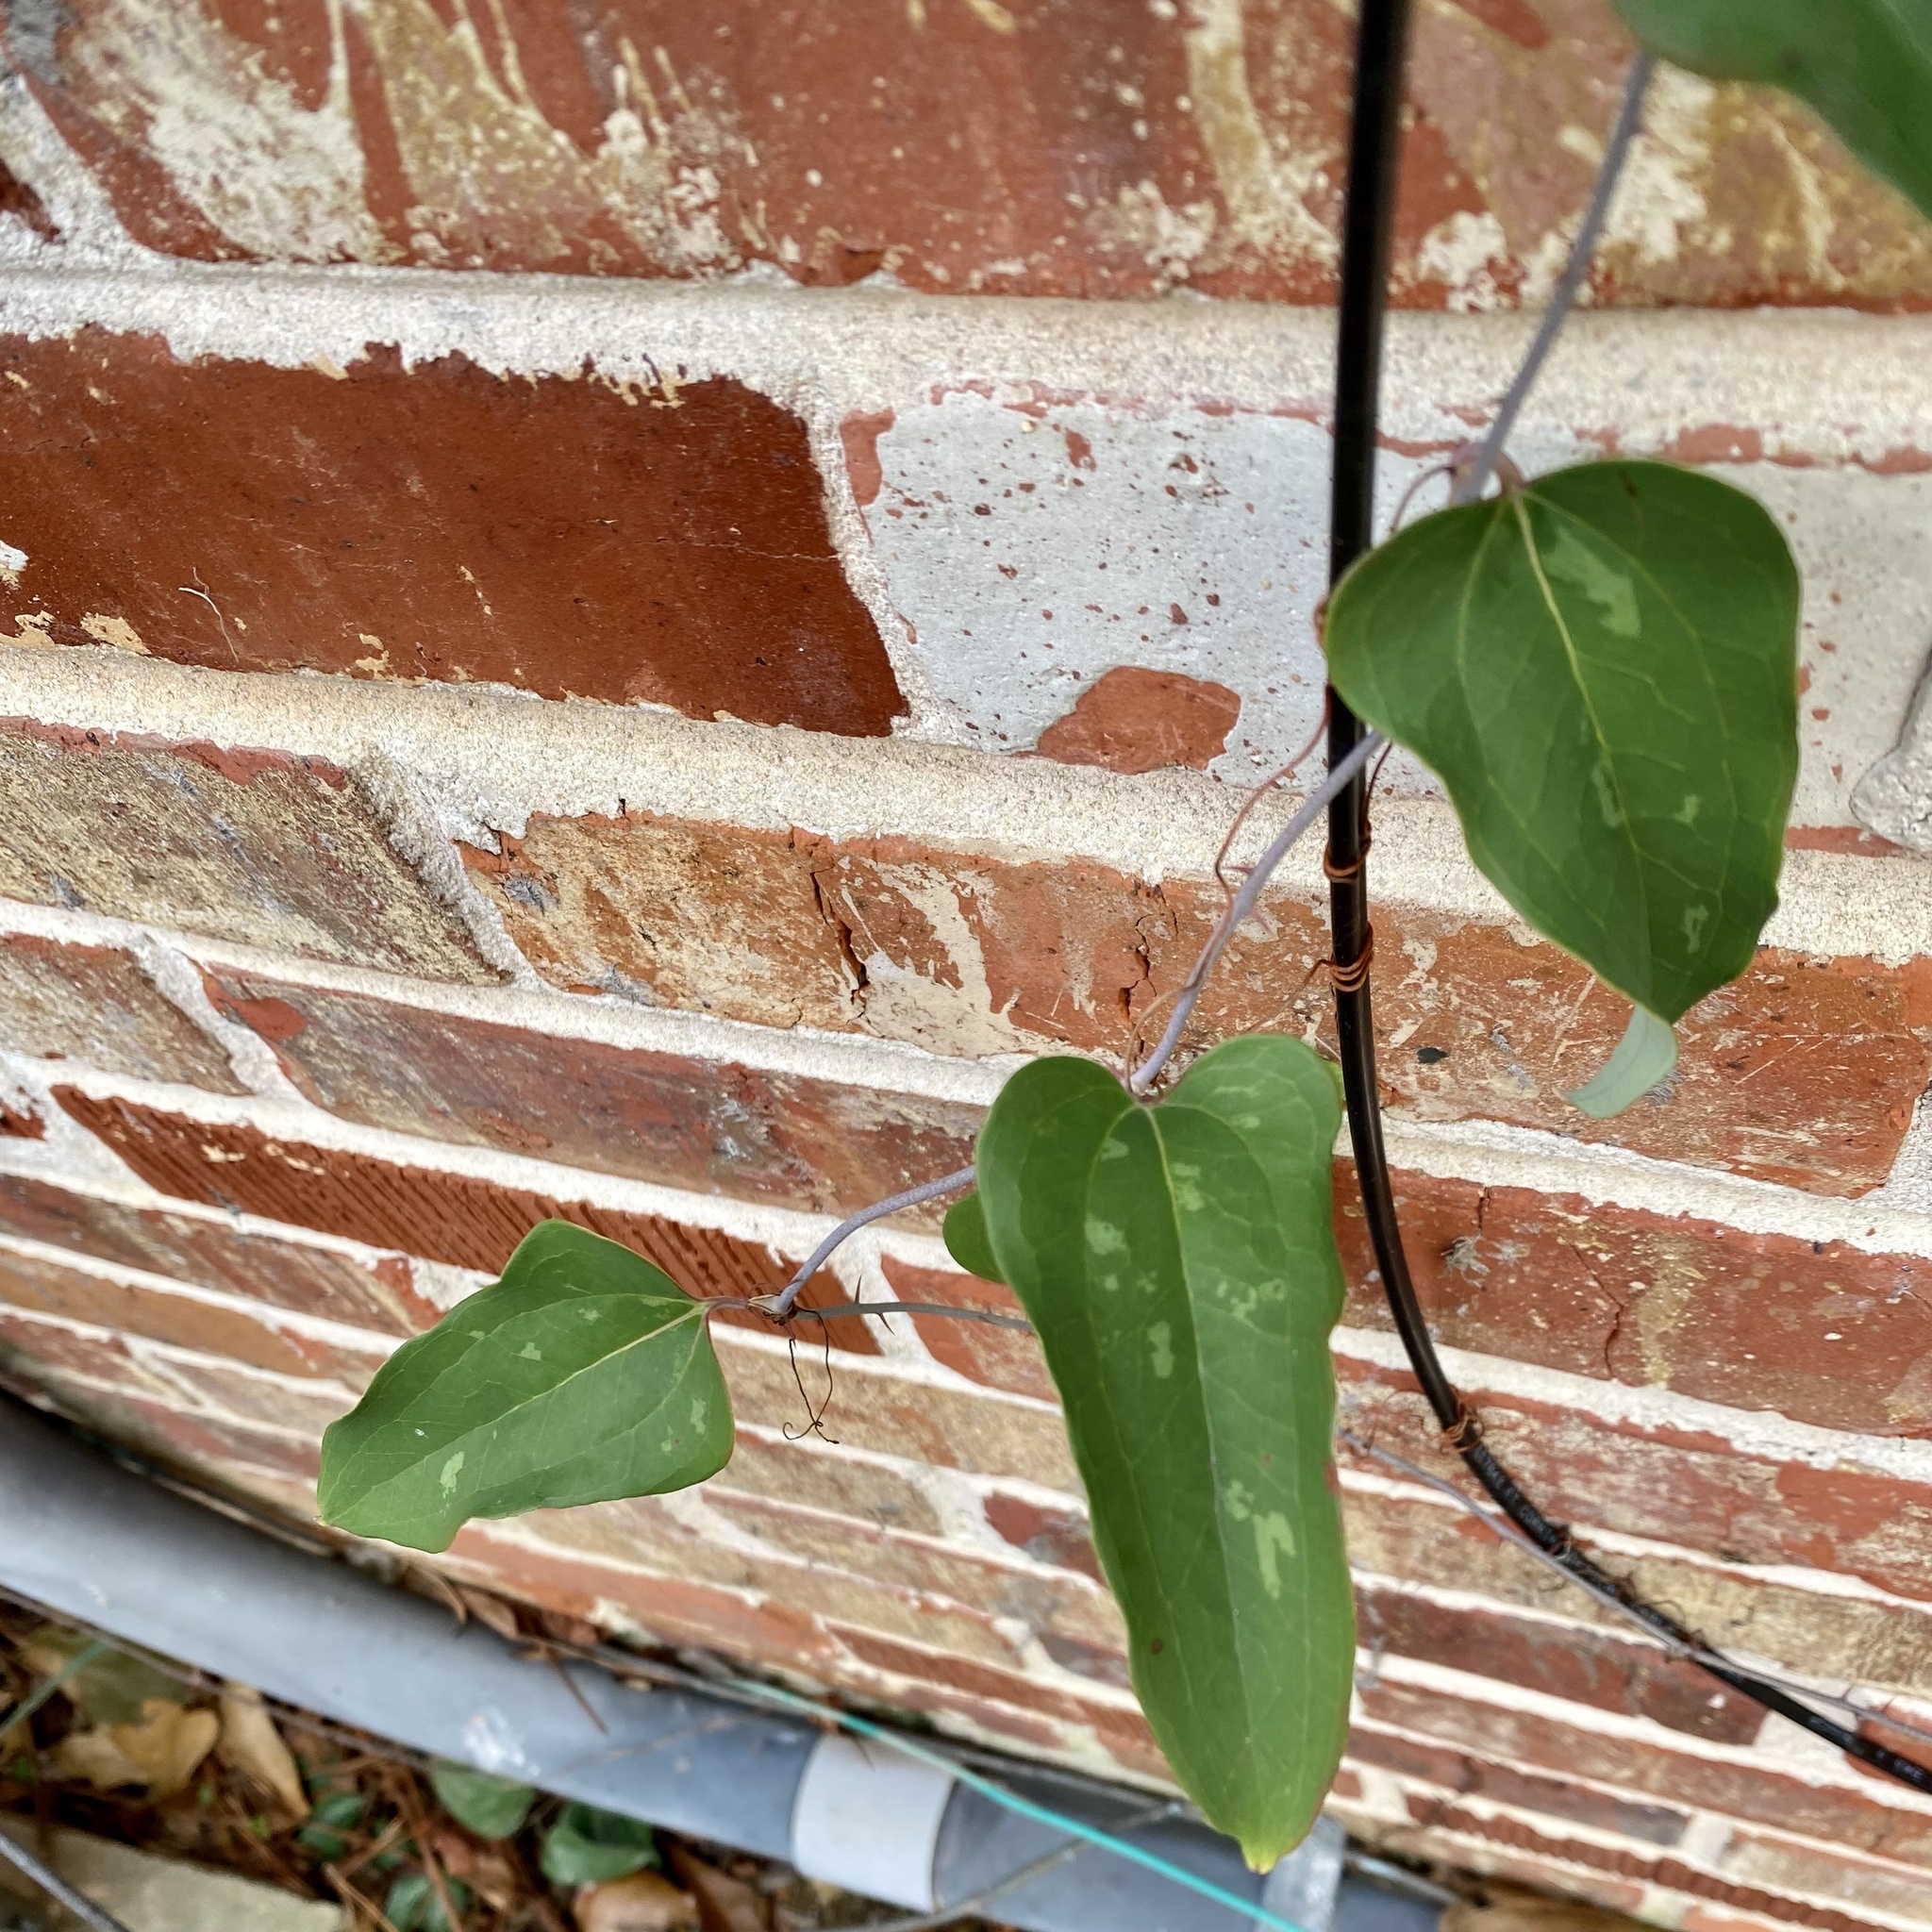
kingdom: Plantae
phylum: Tracheophyta
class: Liliopsida
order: Liliales
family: Smilacaceae
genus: Smilax
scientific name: Smilax glauca
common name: Cat greenbrier
